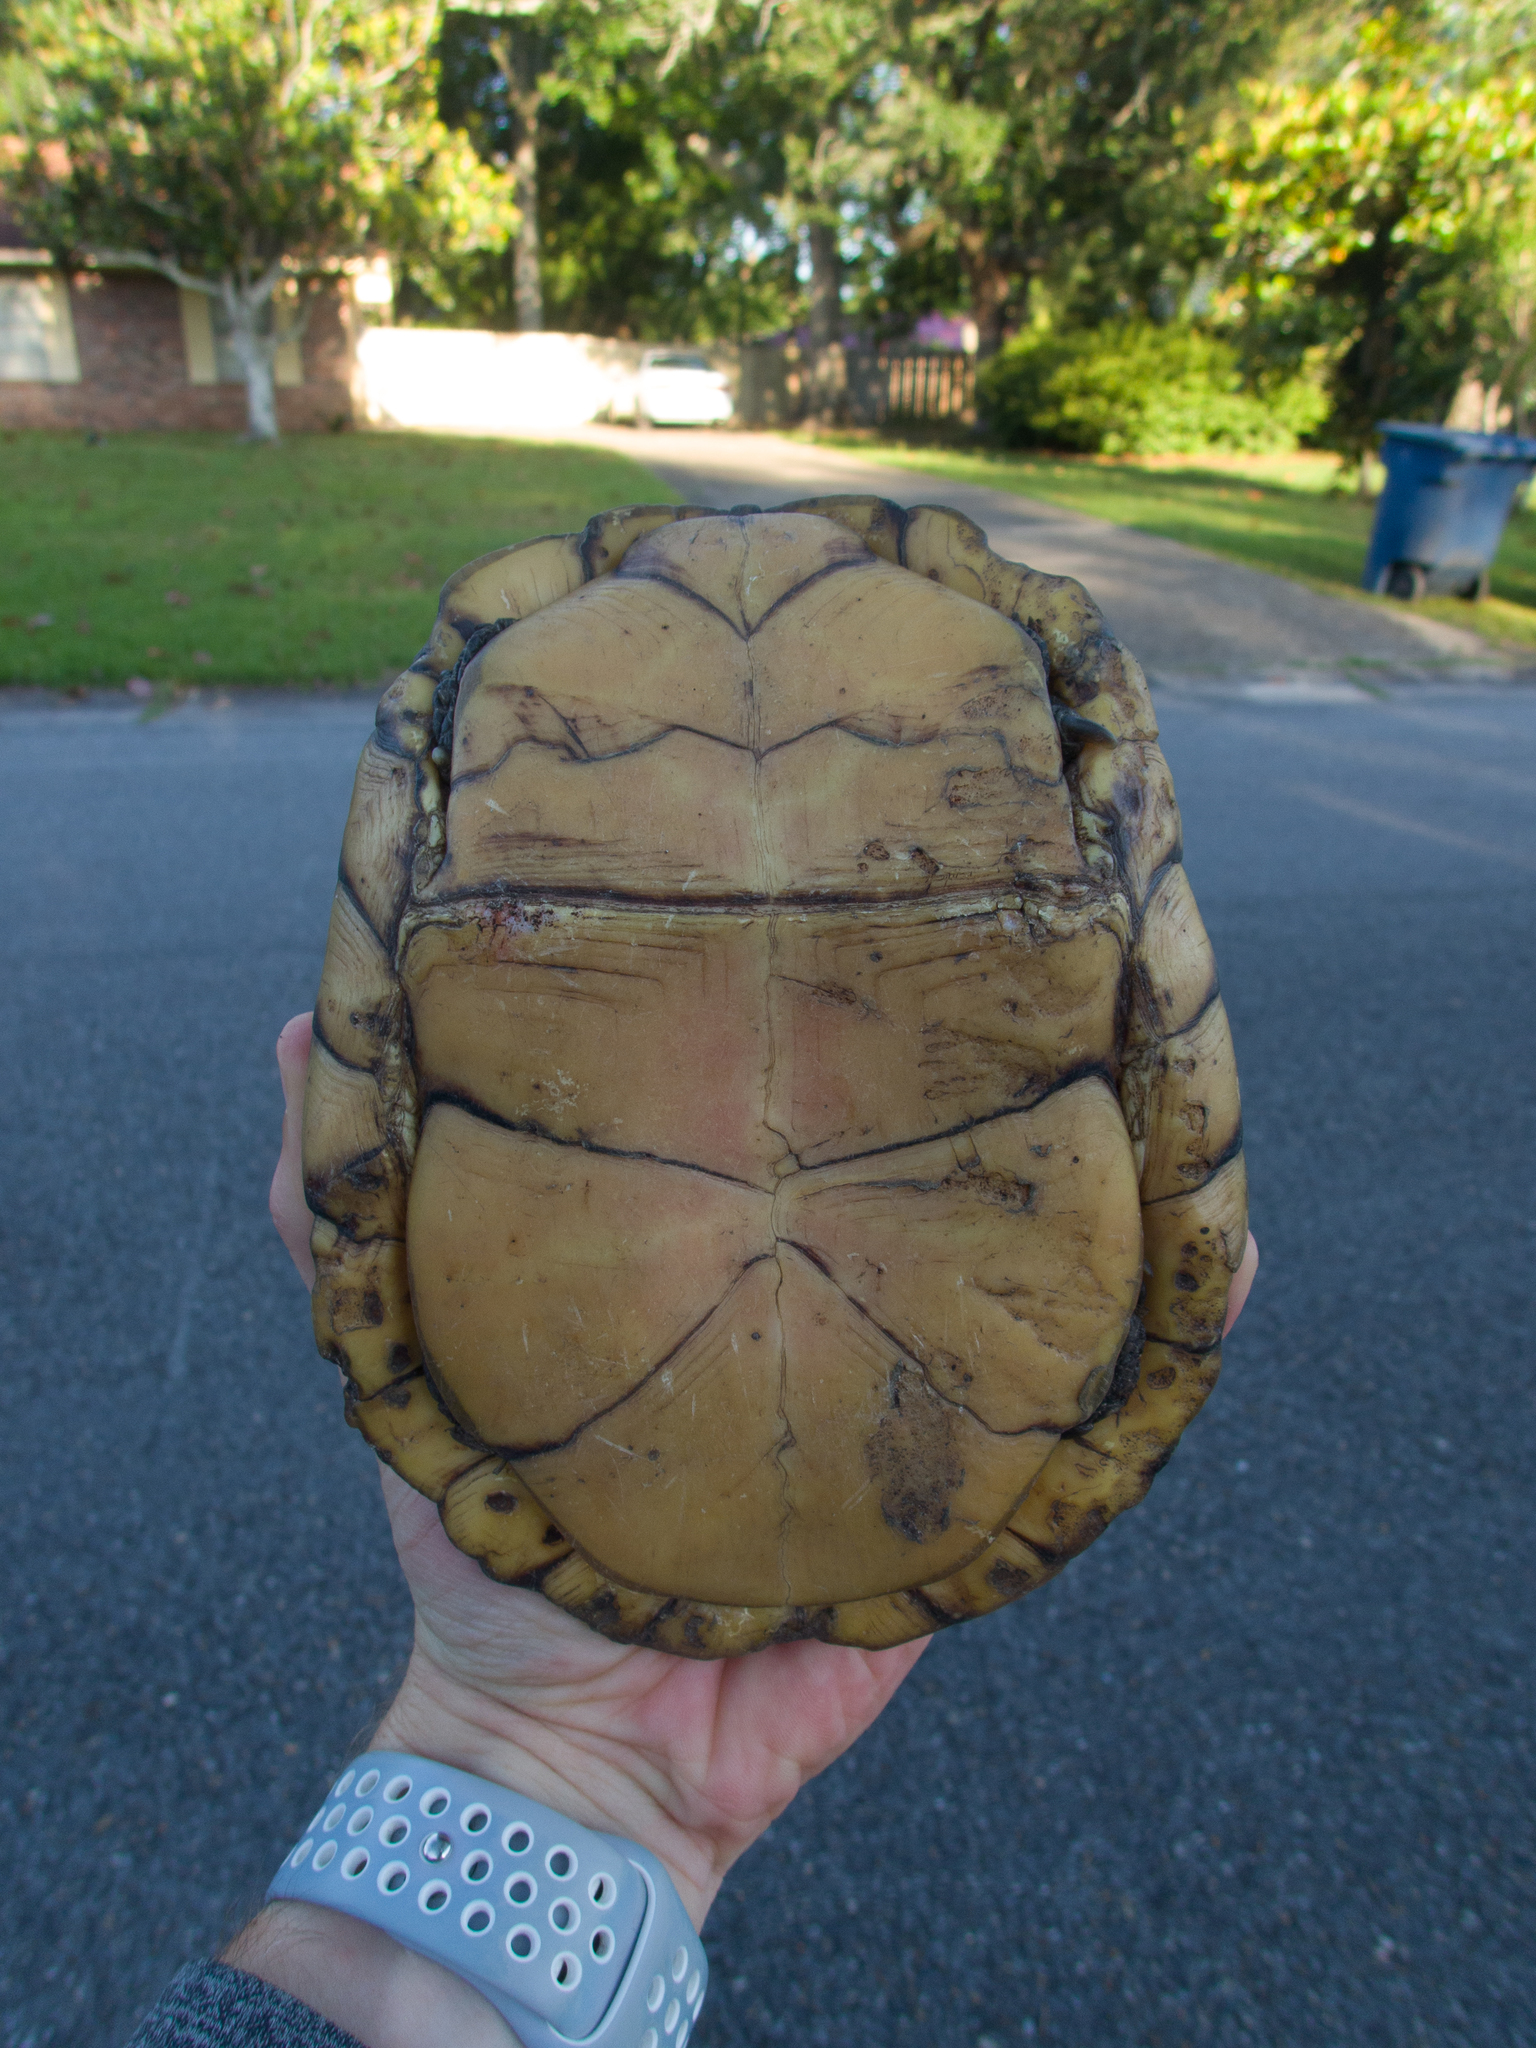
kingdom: Animalia
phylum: Chordata
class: Testudines
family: Emydidae
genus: Terrapene
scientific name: Terrapene carolina
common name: Common box turtle
